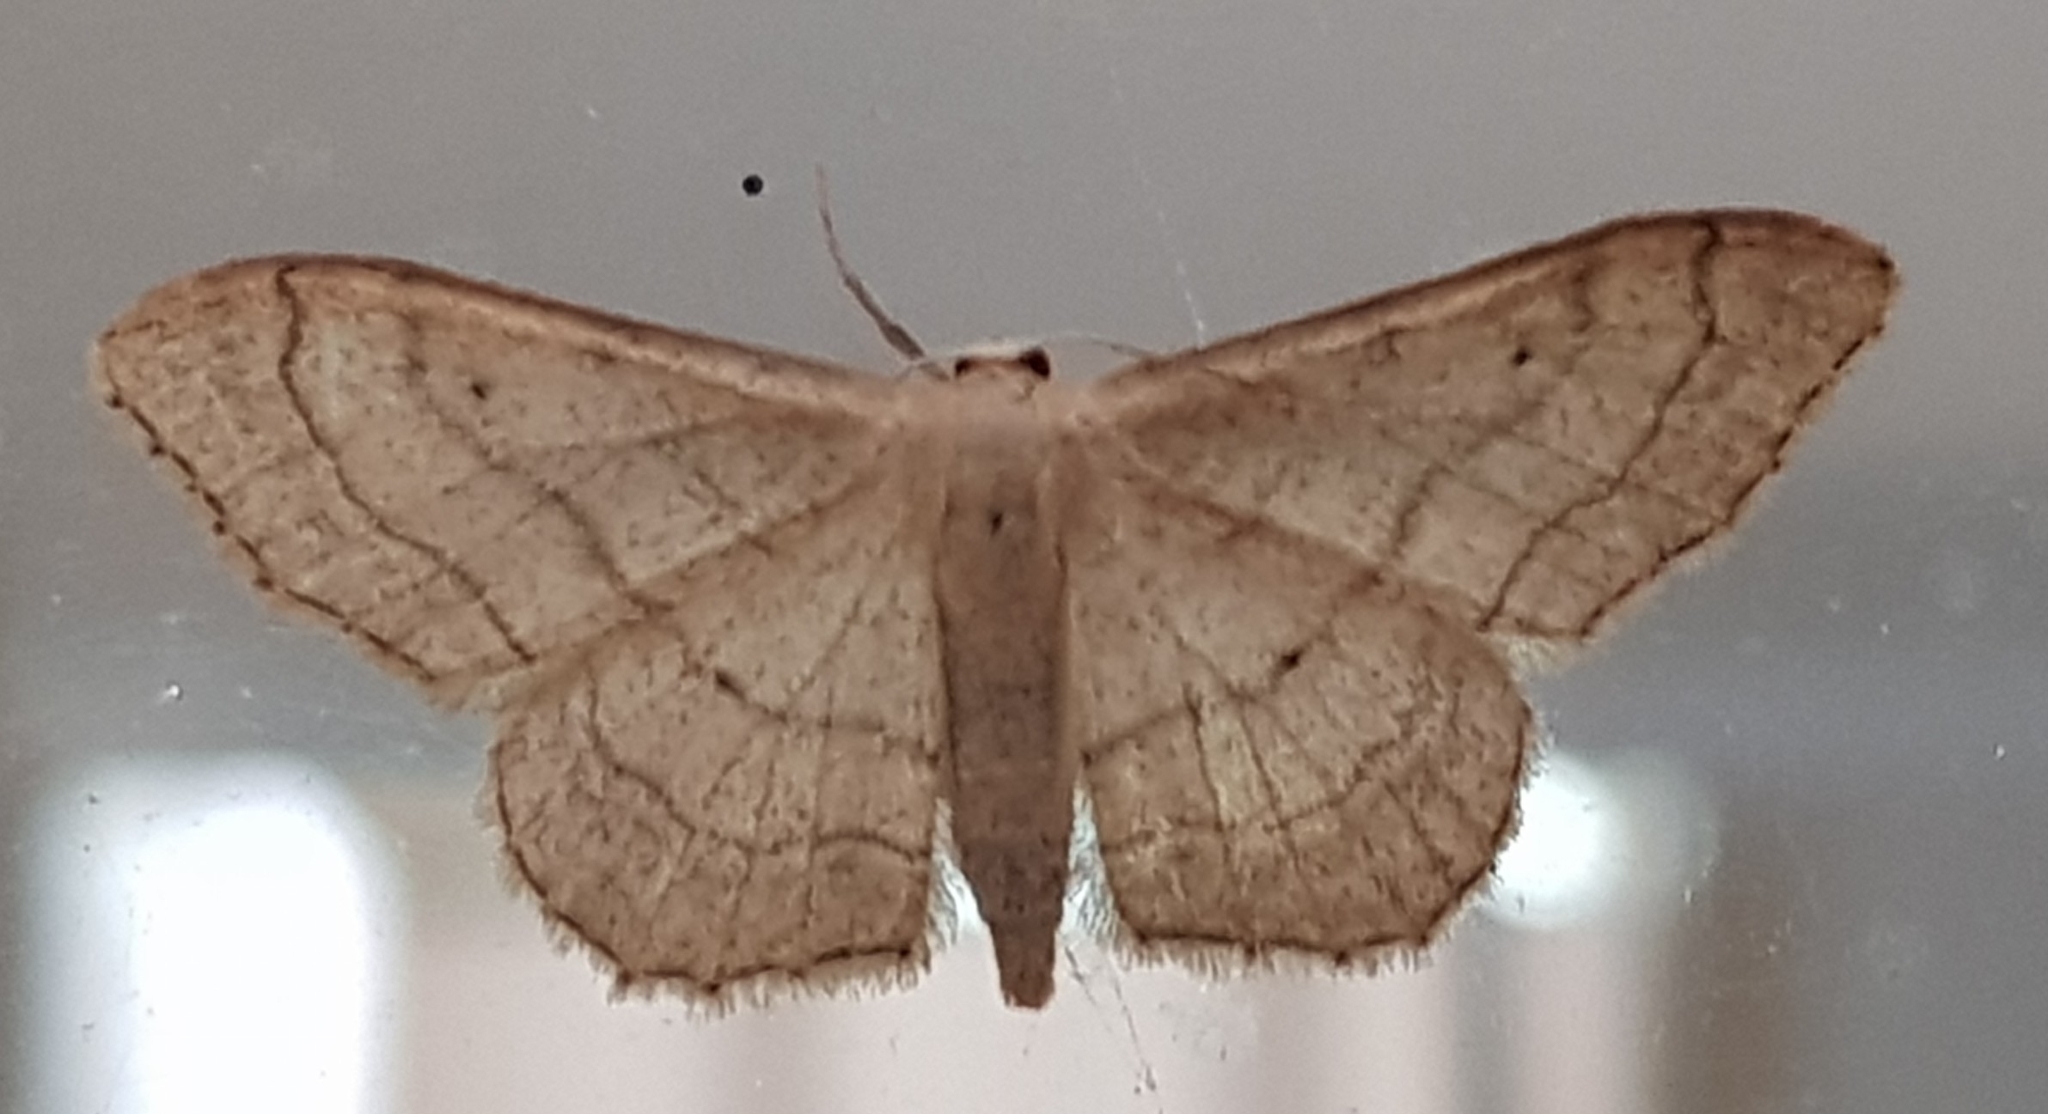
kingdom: Animalia
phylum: Arthropoda
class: Insecta
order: Lepidoptera
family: Geometridae
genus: Idaea
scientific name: Idaea aversata
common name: Riband wave
